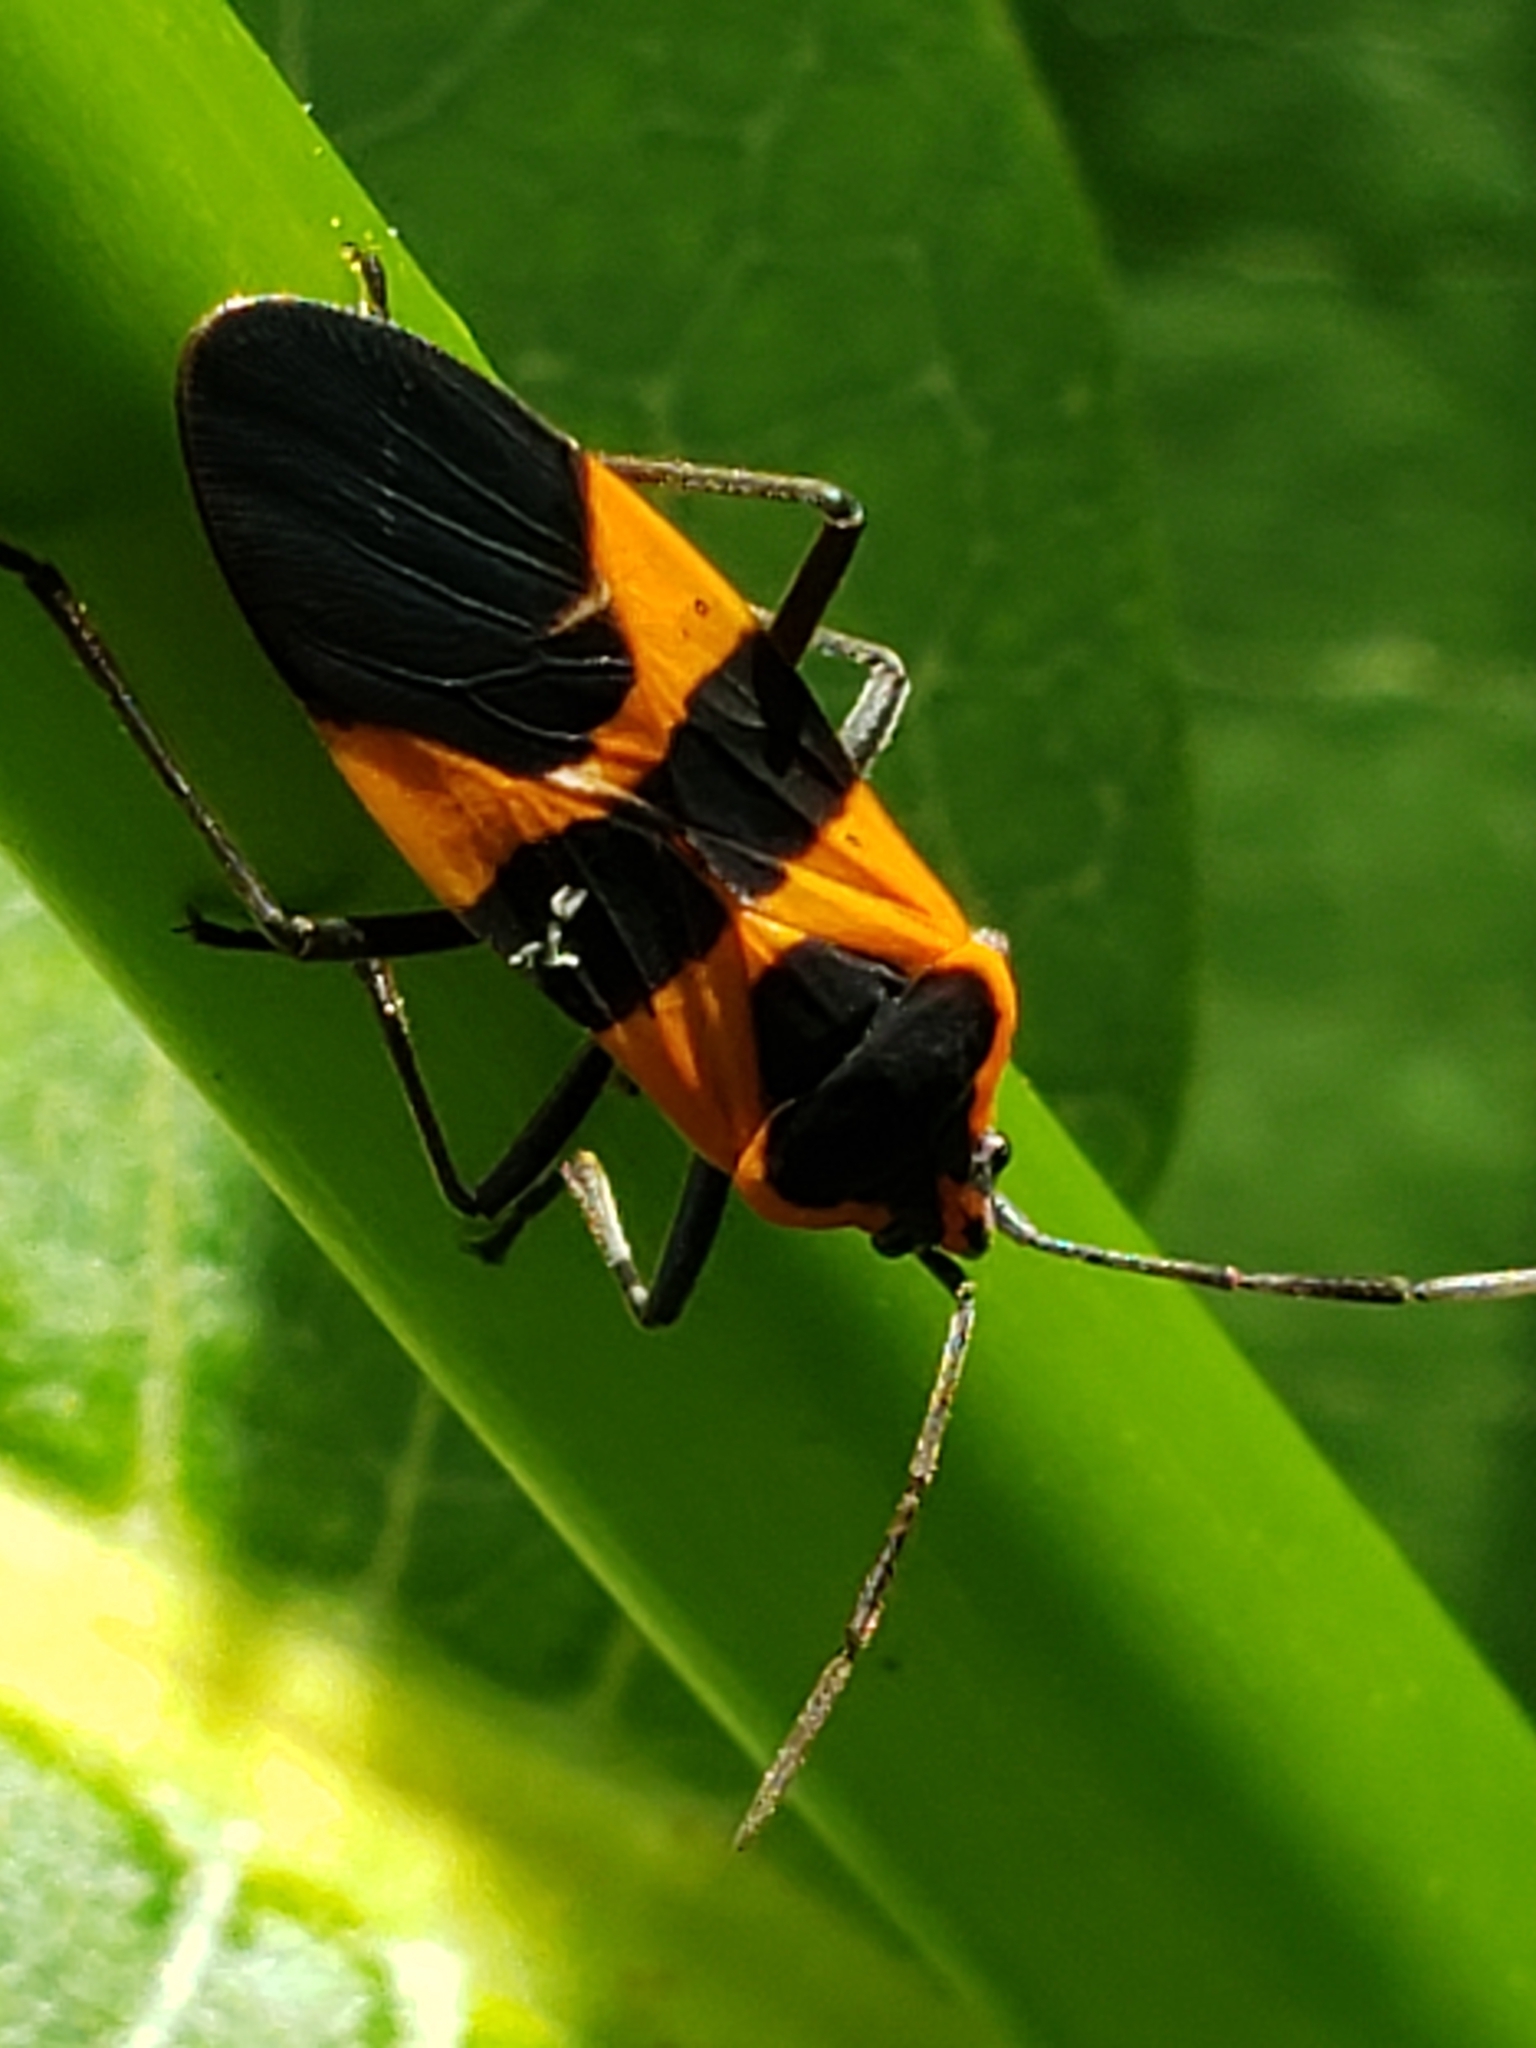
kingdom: Animalia
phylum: Arthropoda
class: Insecta
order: Hemiptera
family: Lygaeidae
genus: Oncopeltus
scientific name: Oncopeltus fasciatus
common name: Large milkweed bug
